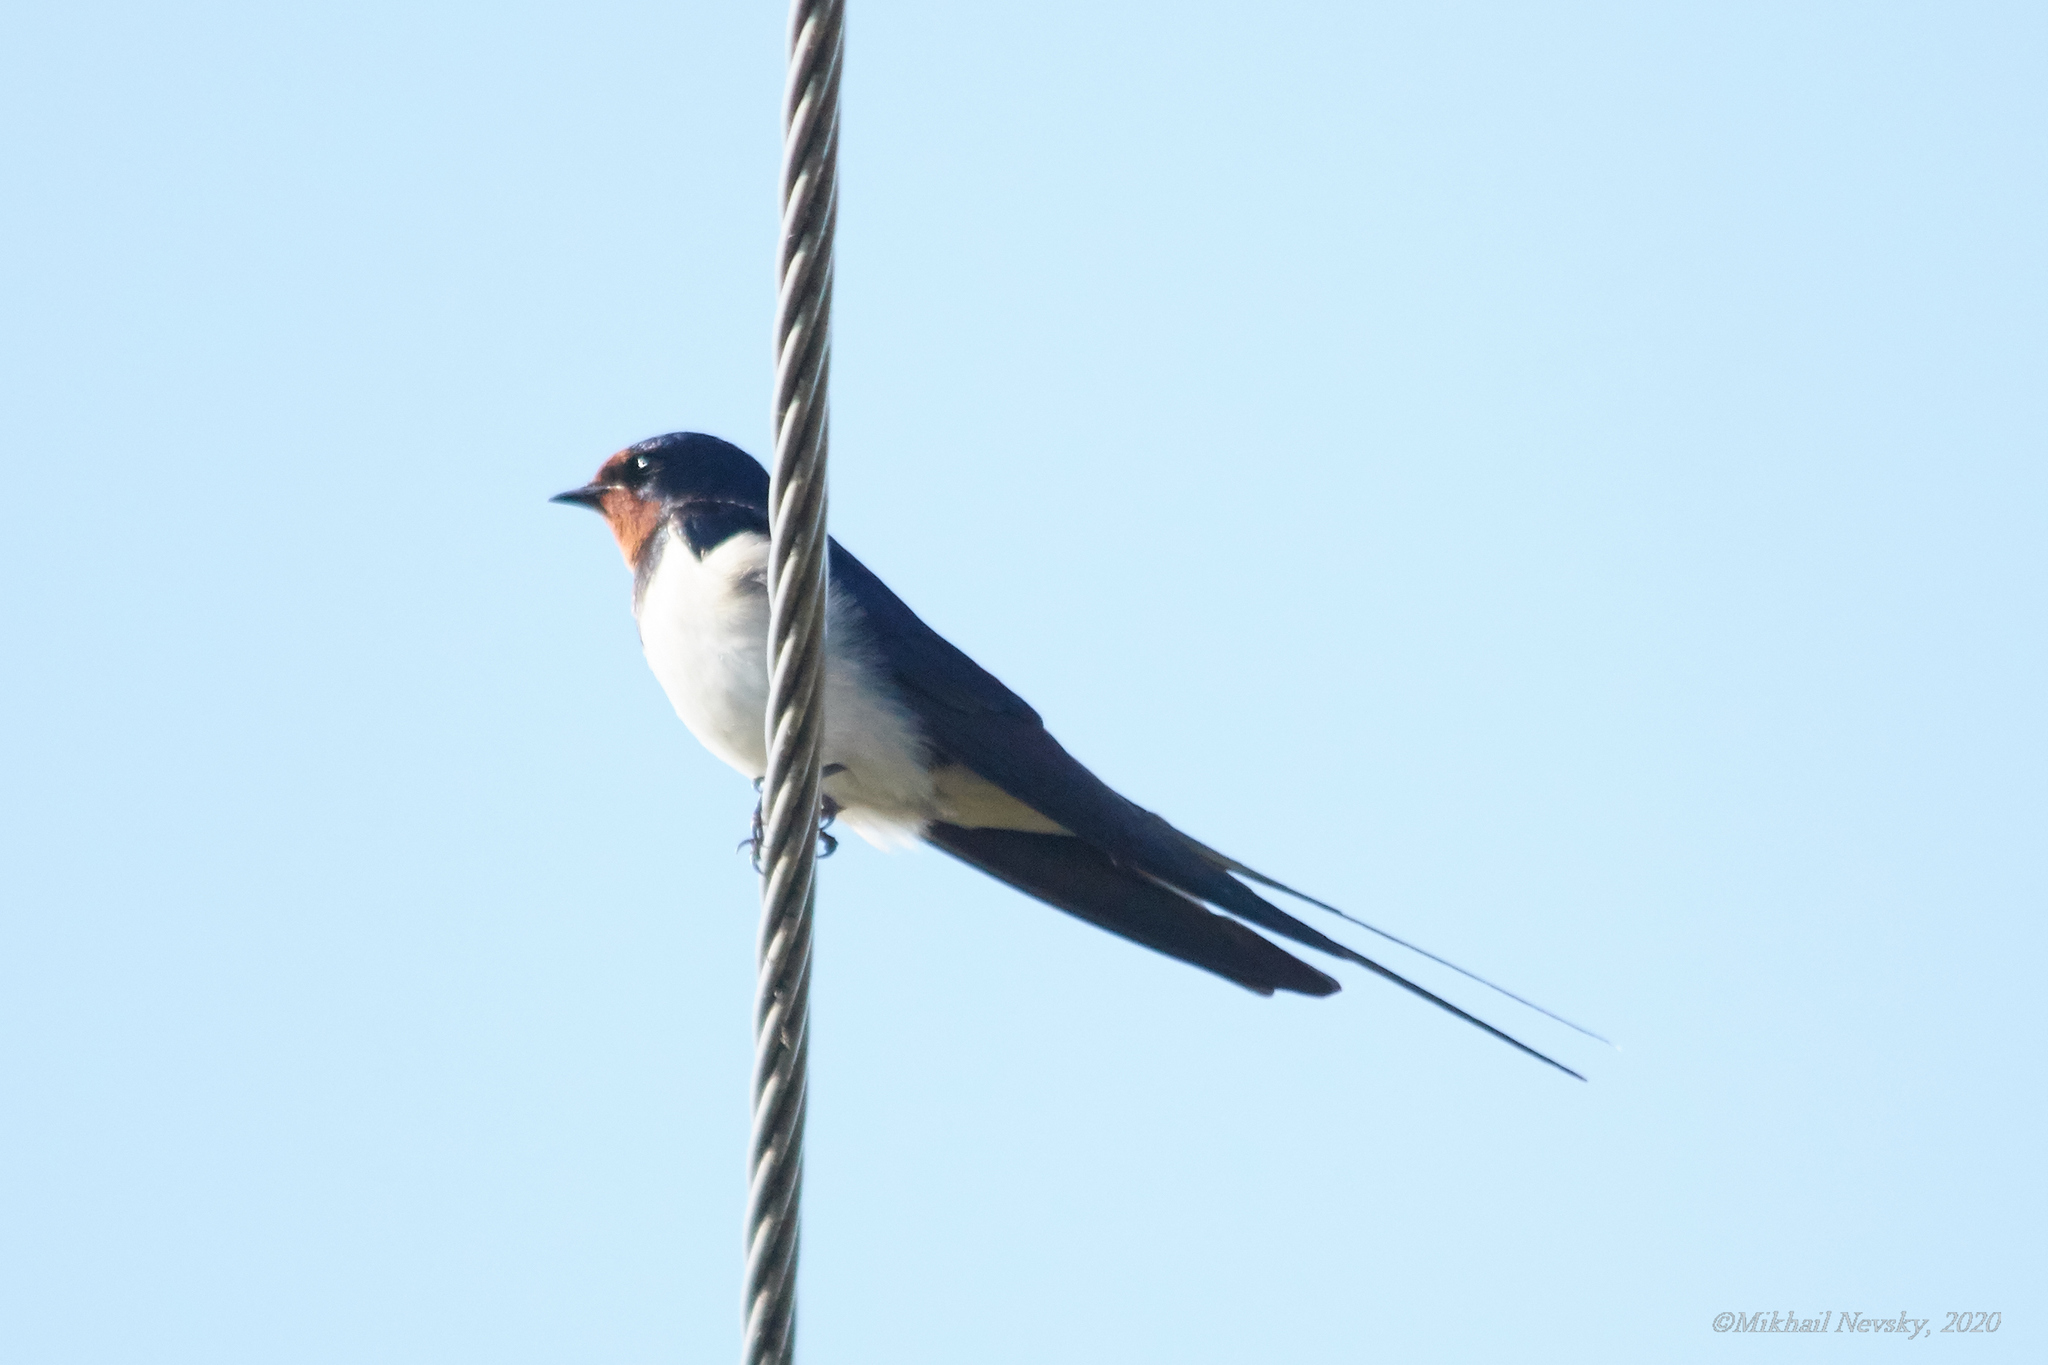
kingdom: Animalia
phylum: Chordata
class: Aves
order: Passeriformes
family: Hirundinidae
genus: Hirundo
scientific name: Hirundo rustica
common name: Barn swallow
